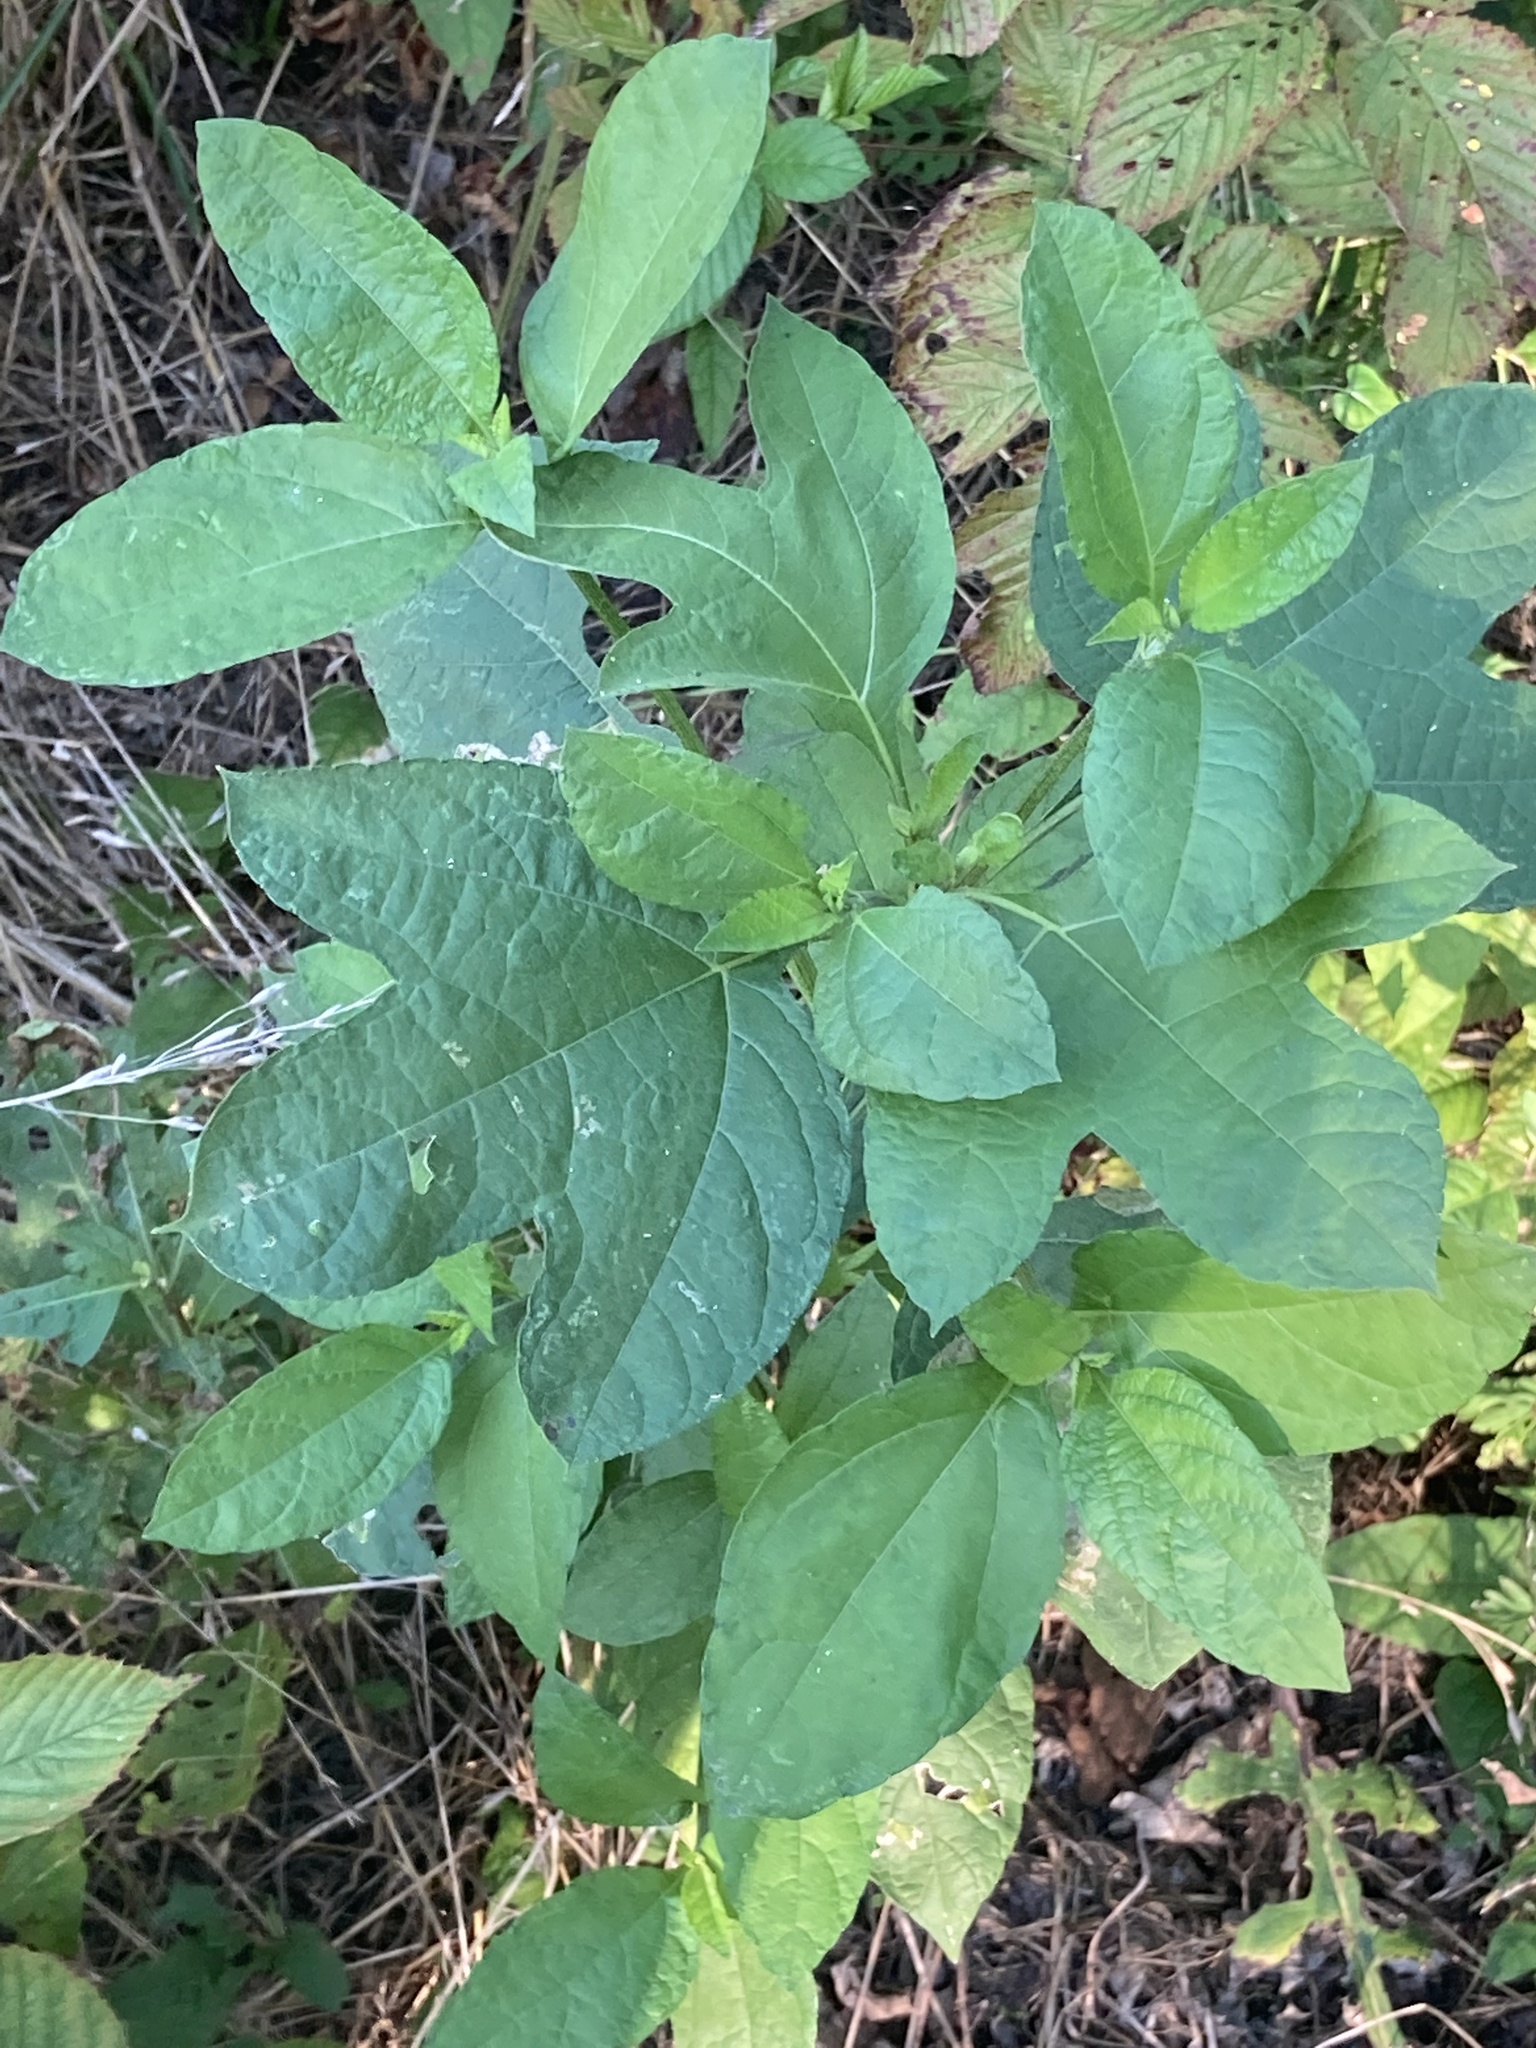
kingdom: Plantae
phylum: Tracheophyta
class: Magnoliopsida
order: Asterales
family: Asteraceae
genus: Ambrosia
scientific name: Ambrosia trifida
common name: Giant ragweed
